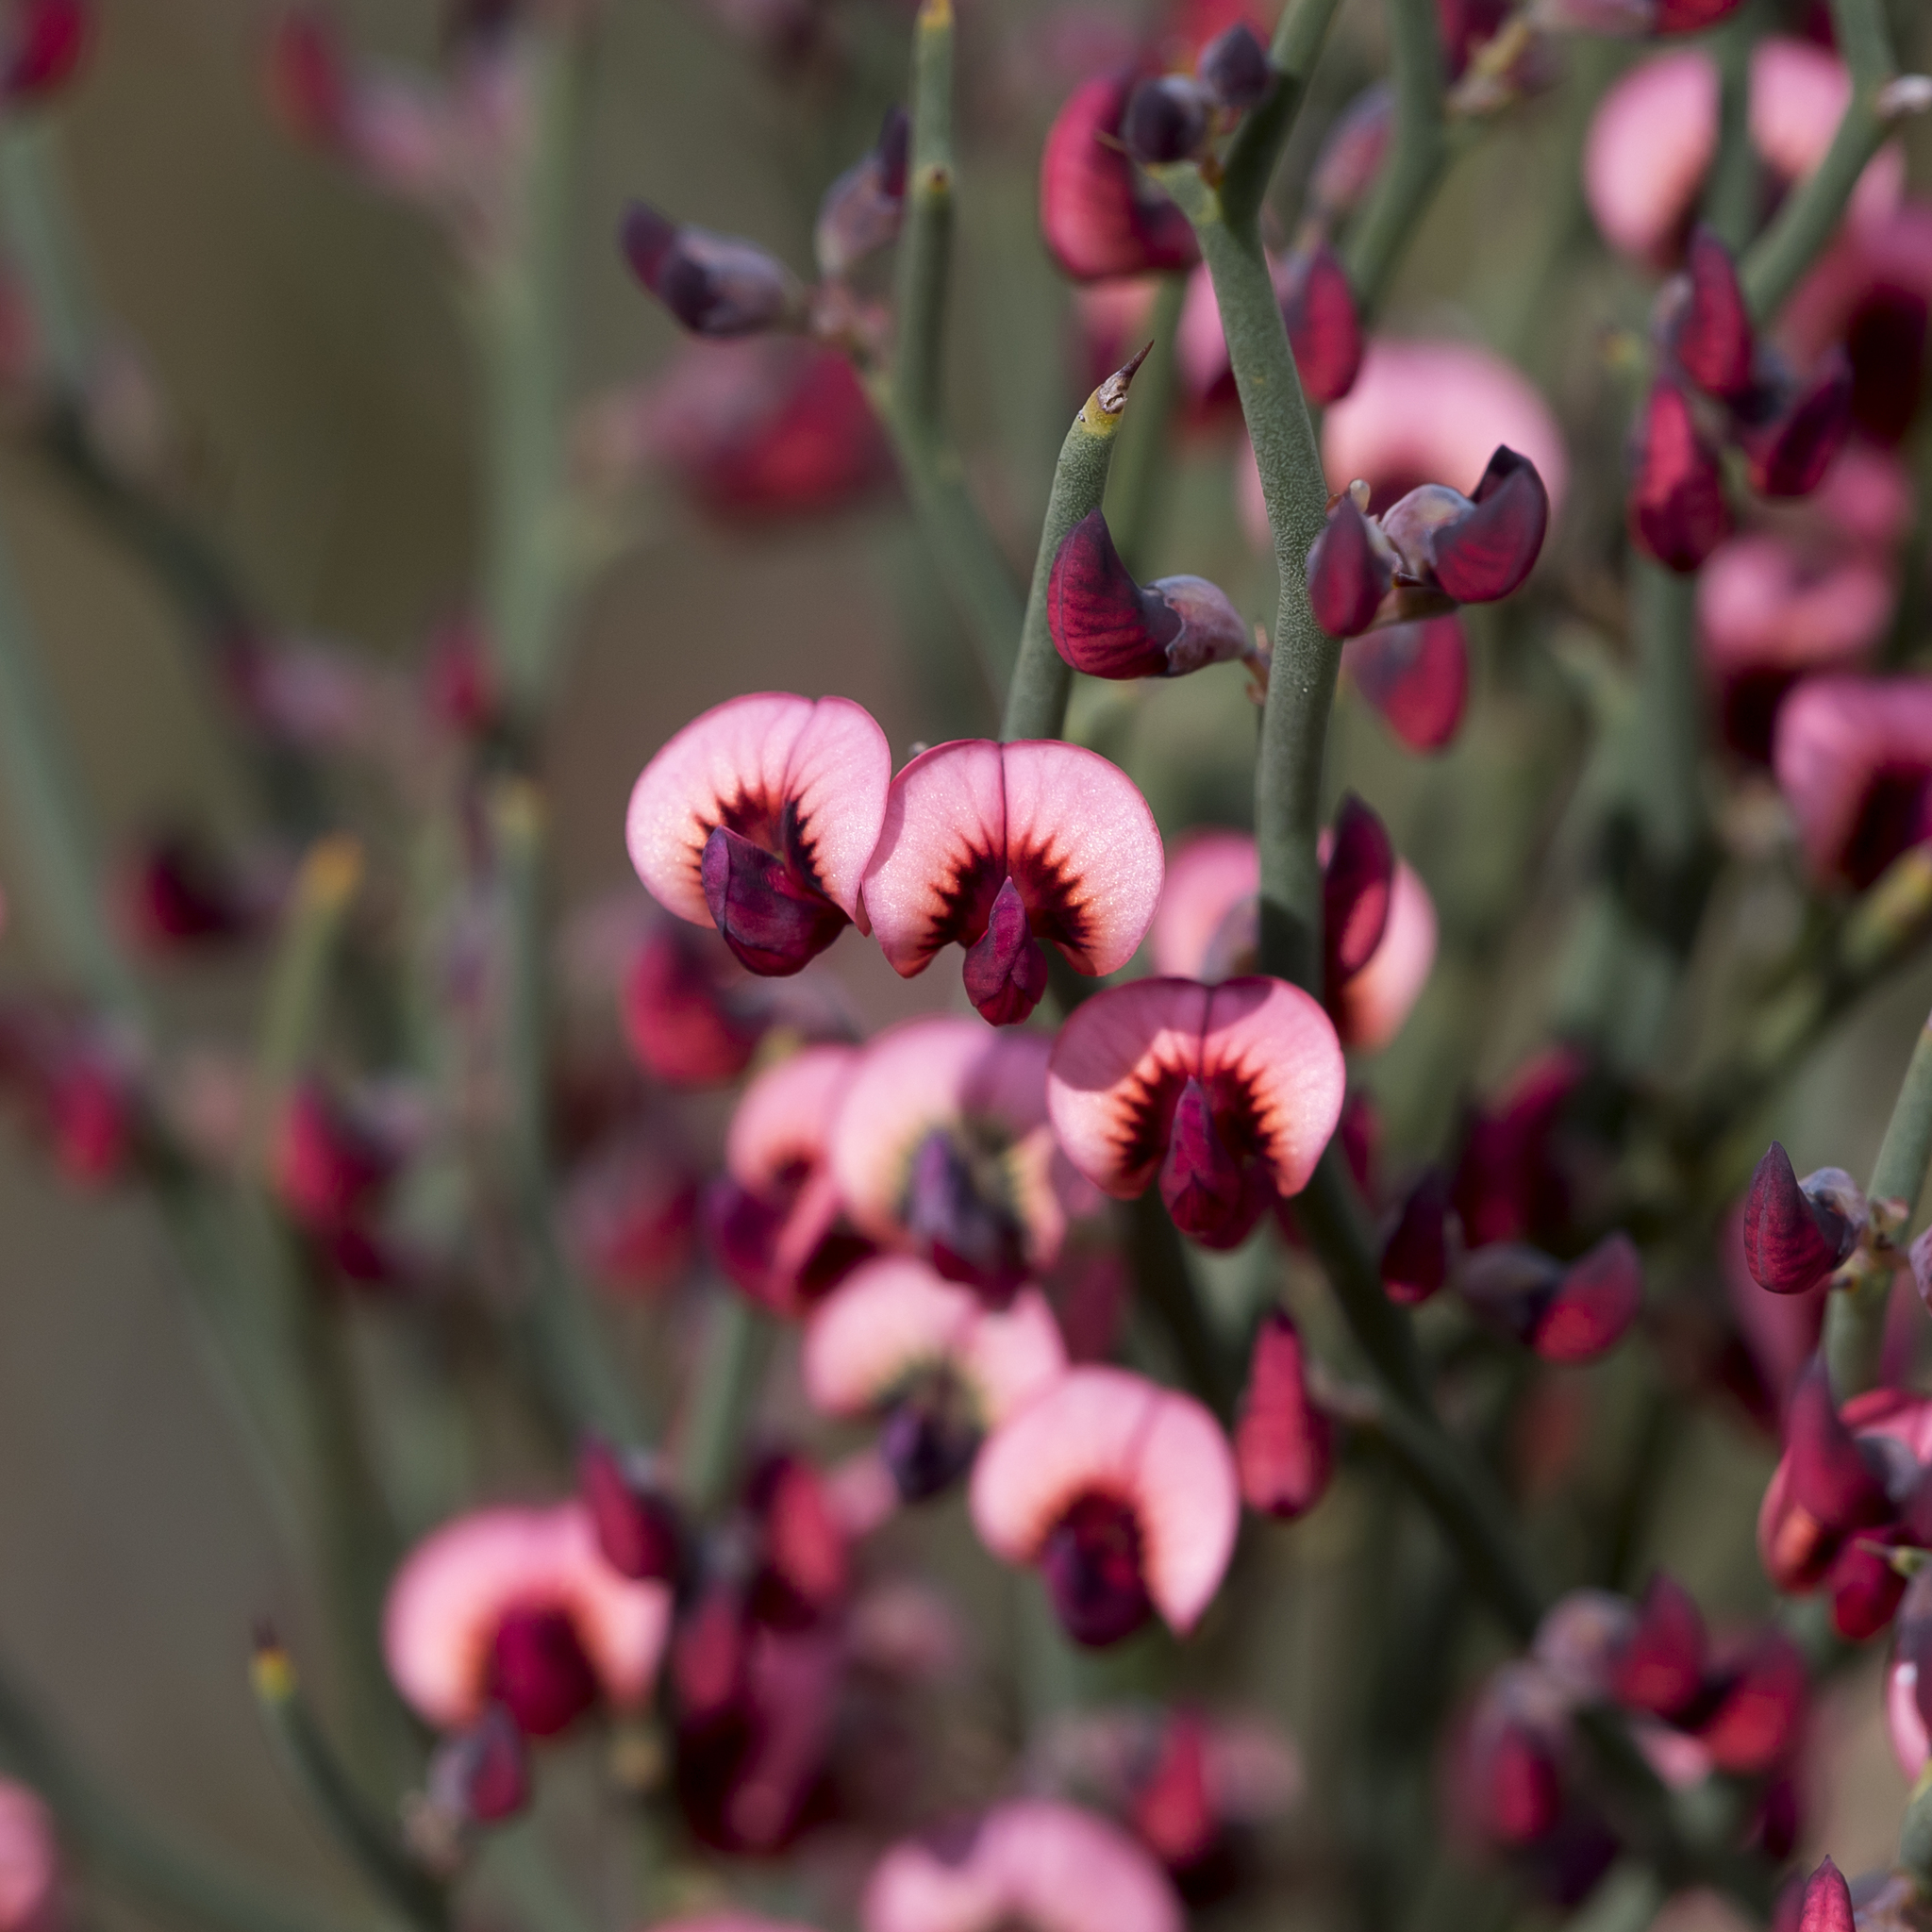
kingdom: Plantae
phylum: Tracheophyta
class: Magnoliopsida
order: Fabales
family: Fabaceae
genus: Daviesia
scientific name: Daviesia brevifolia
